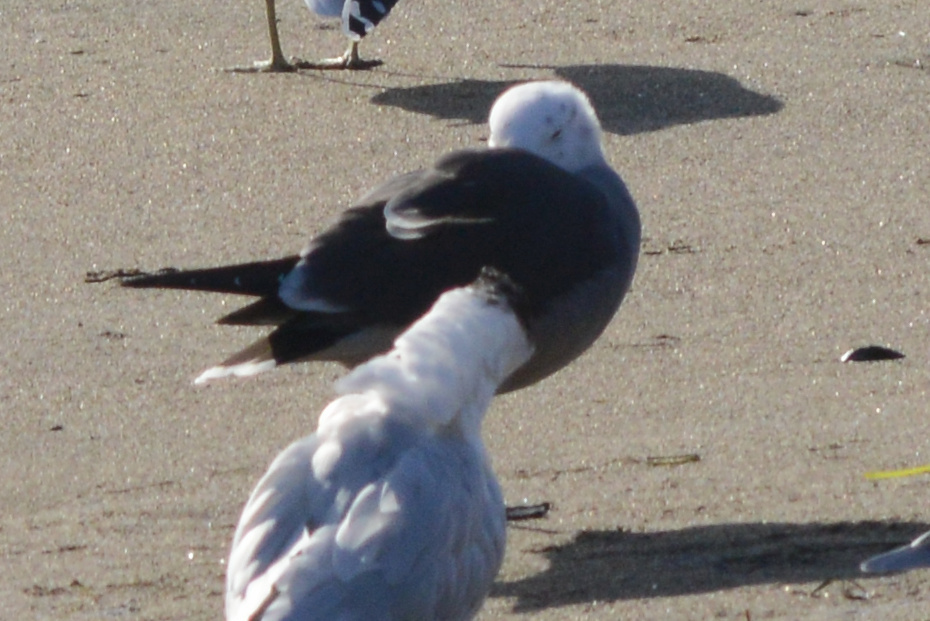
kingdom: Animalia
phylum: Chordata
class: Aves
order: Charadriiformes
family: Laridae
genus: Larus
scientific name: Larus heermanni
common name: Heermann's gull
